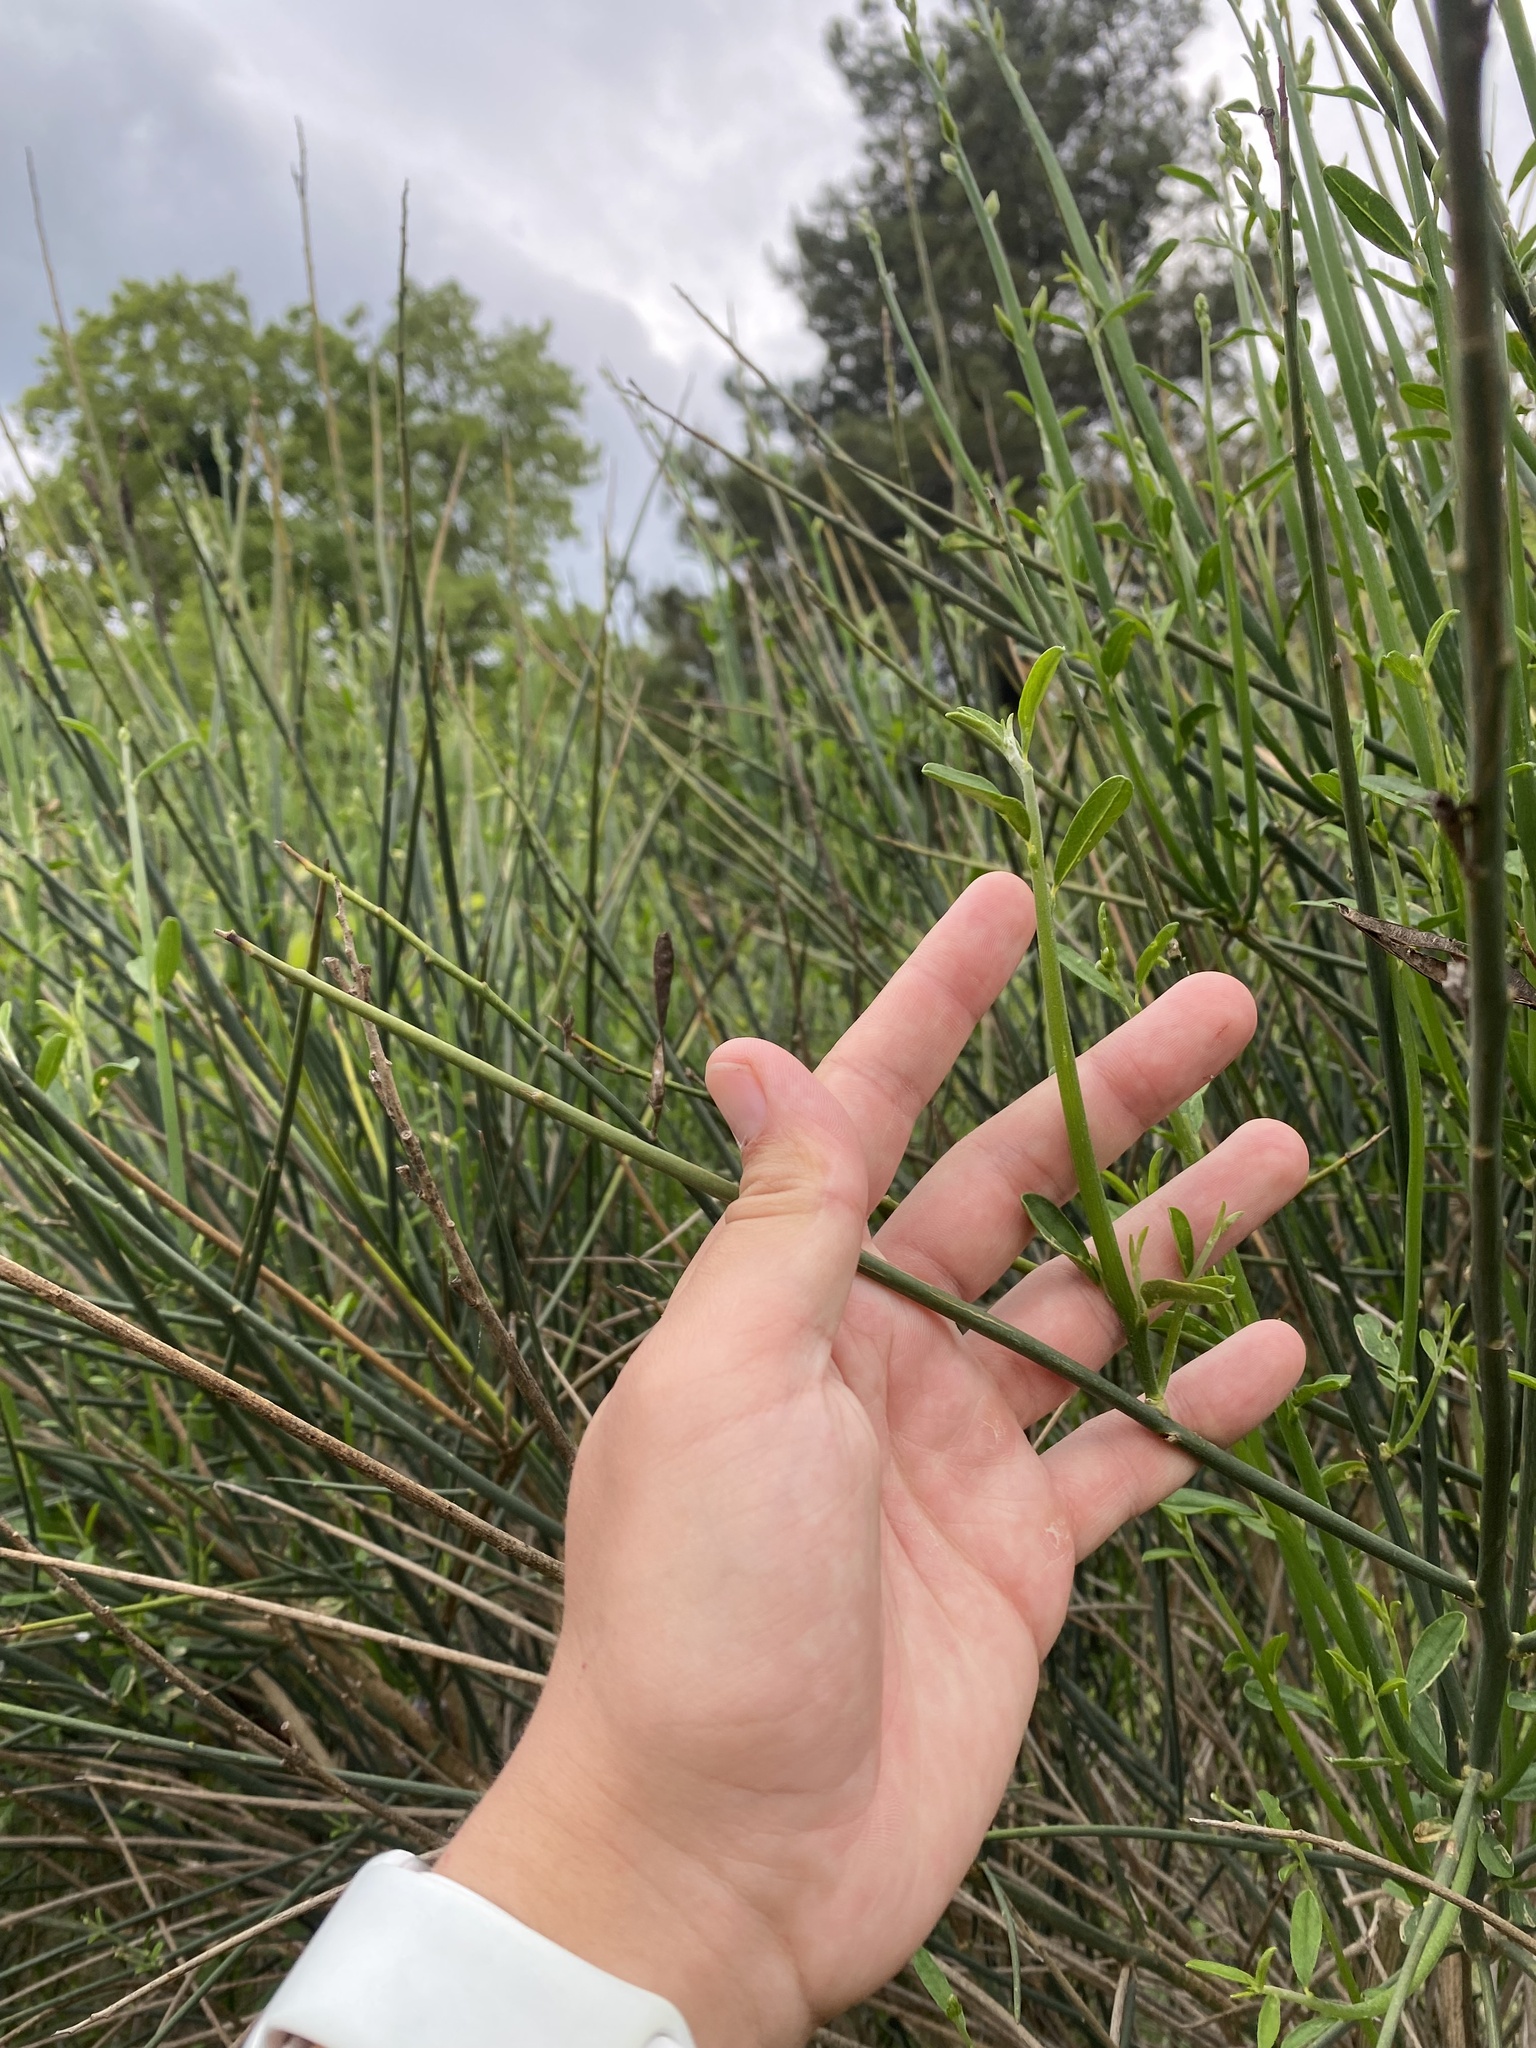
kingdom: Plantae
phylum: Tracheophyta
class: Magnoliopsida
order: Fabales
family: Fabaceae
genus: Spartium
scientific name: Spartium junceum
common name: Spanish broom
